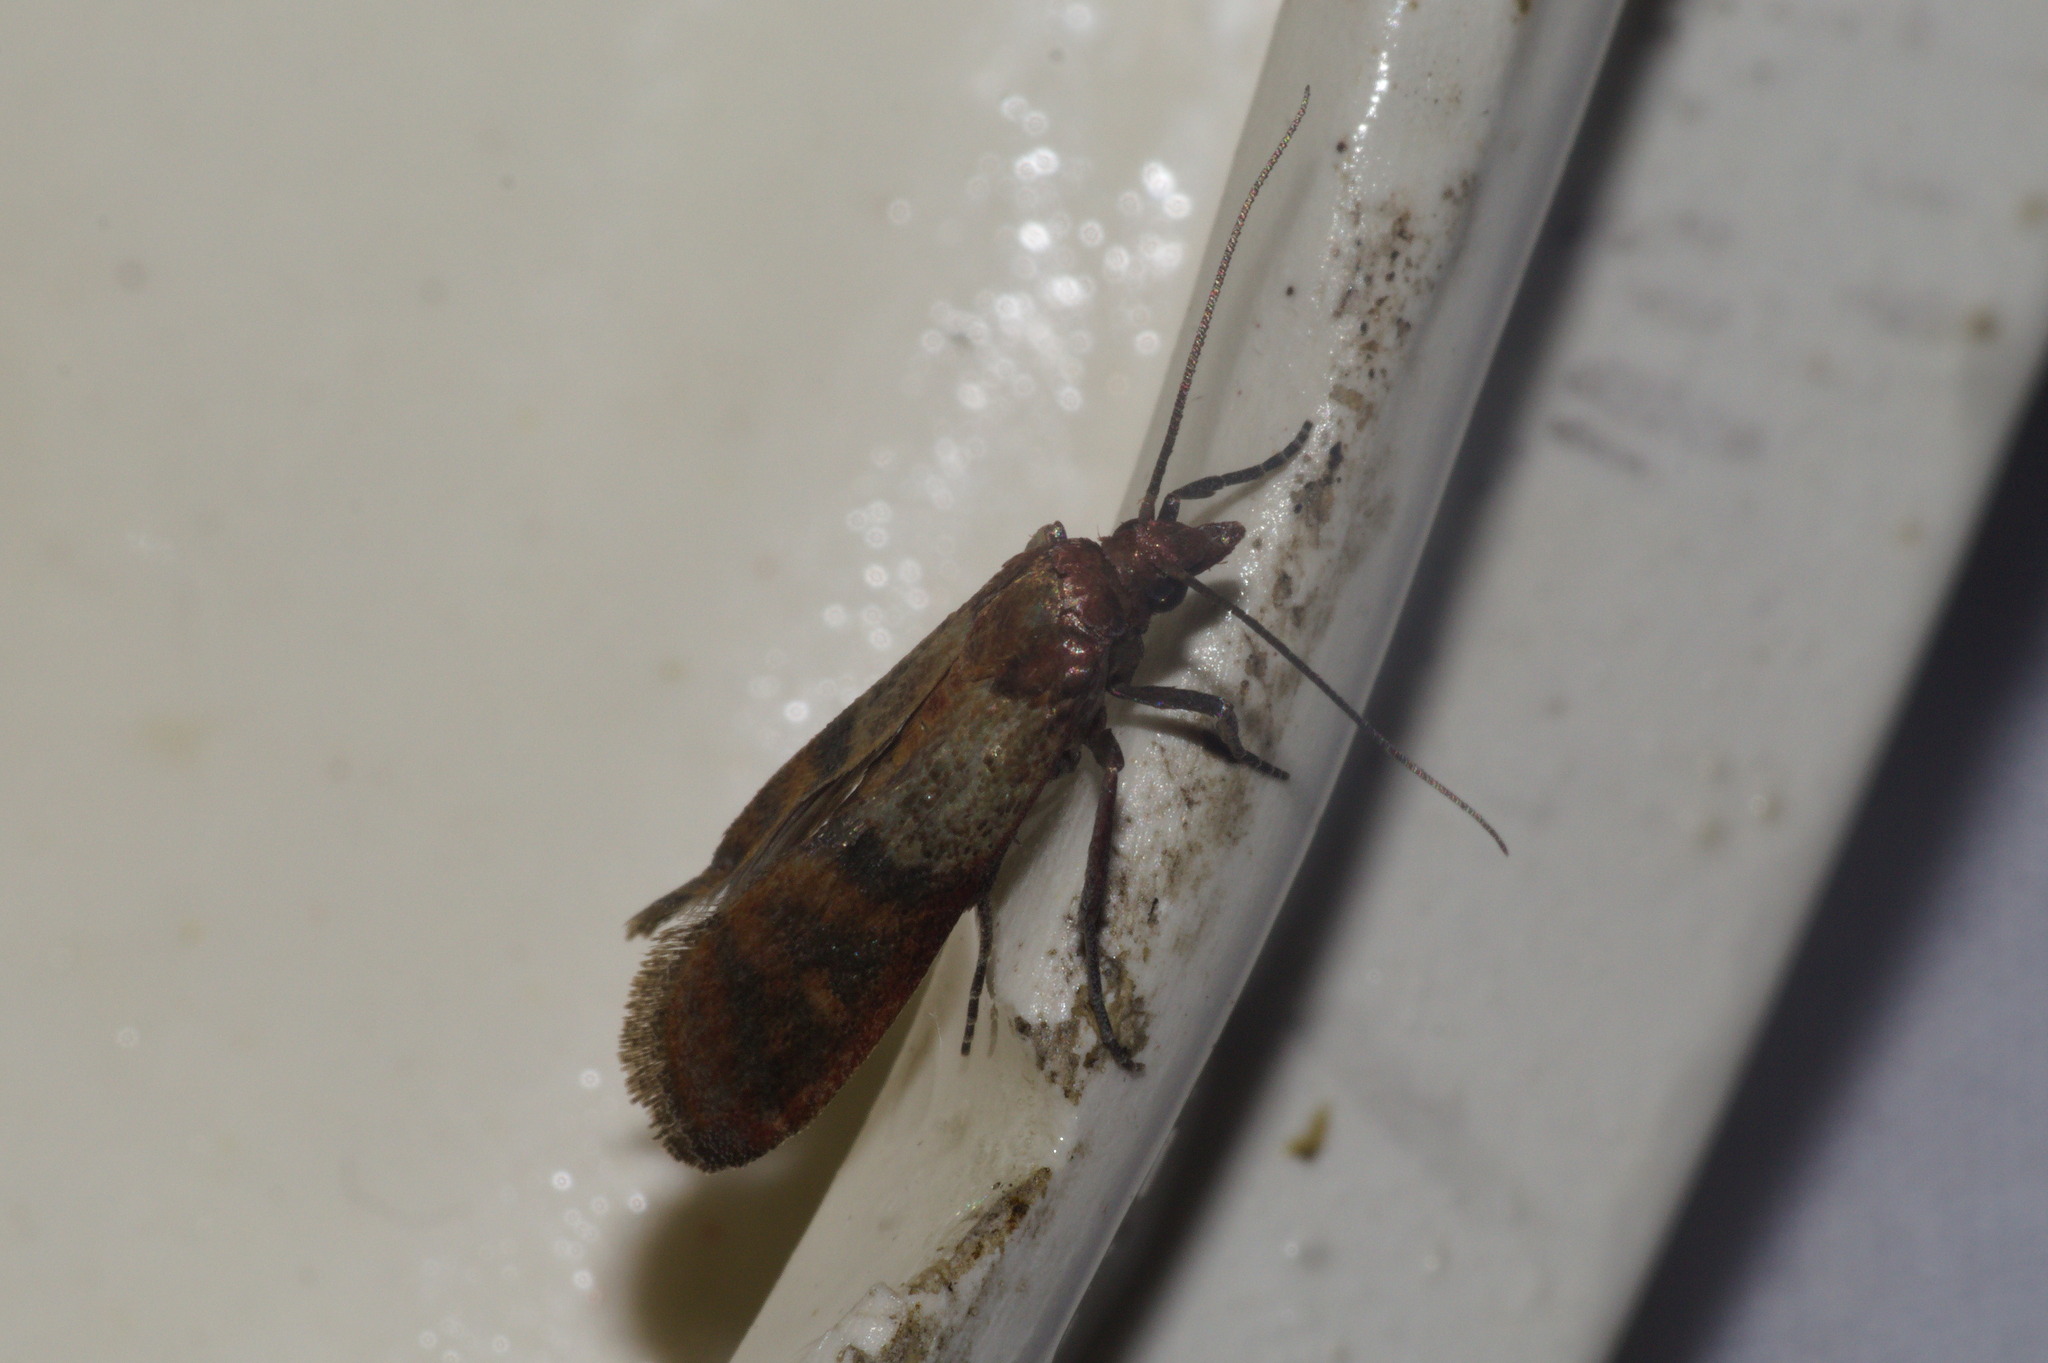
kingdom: Animalia
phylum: Arthropoda
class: Insecta
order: Lepidoptera
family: Pyralidae
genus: Plodia
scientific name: Plodia interpunctella
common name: Indian meal moth
